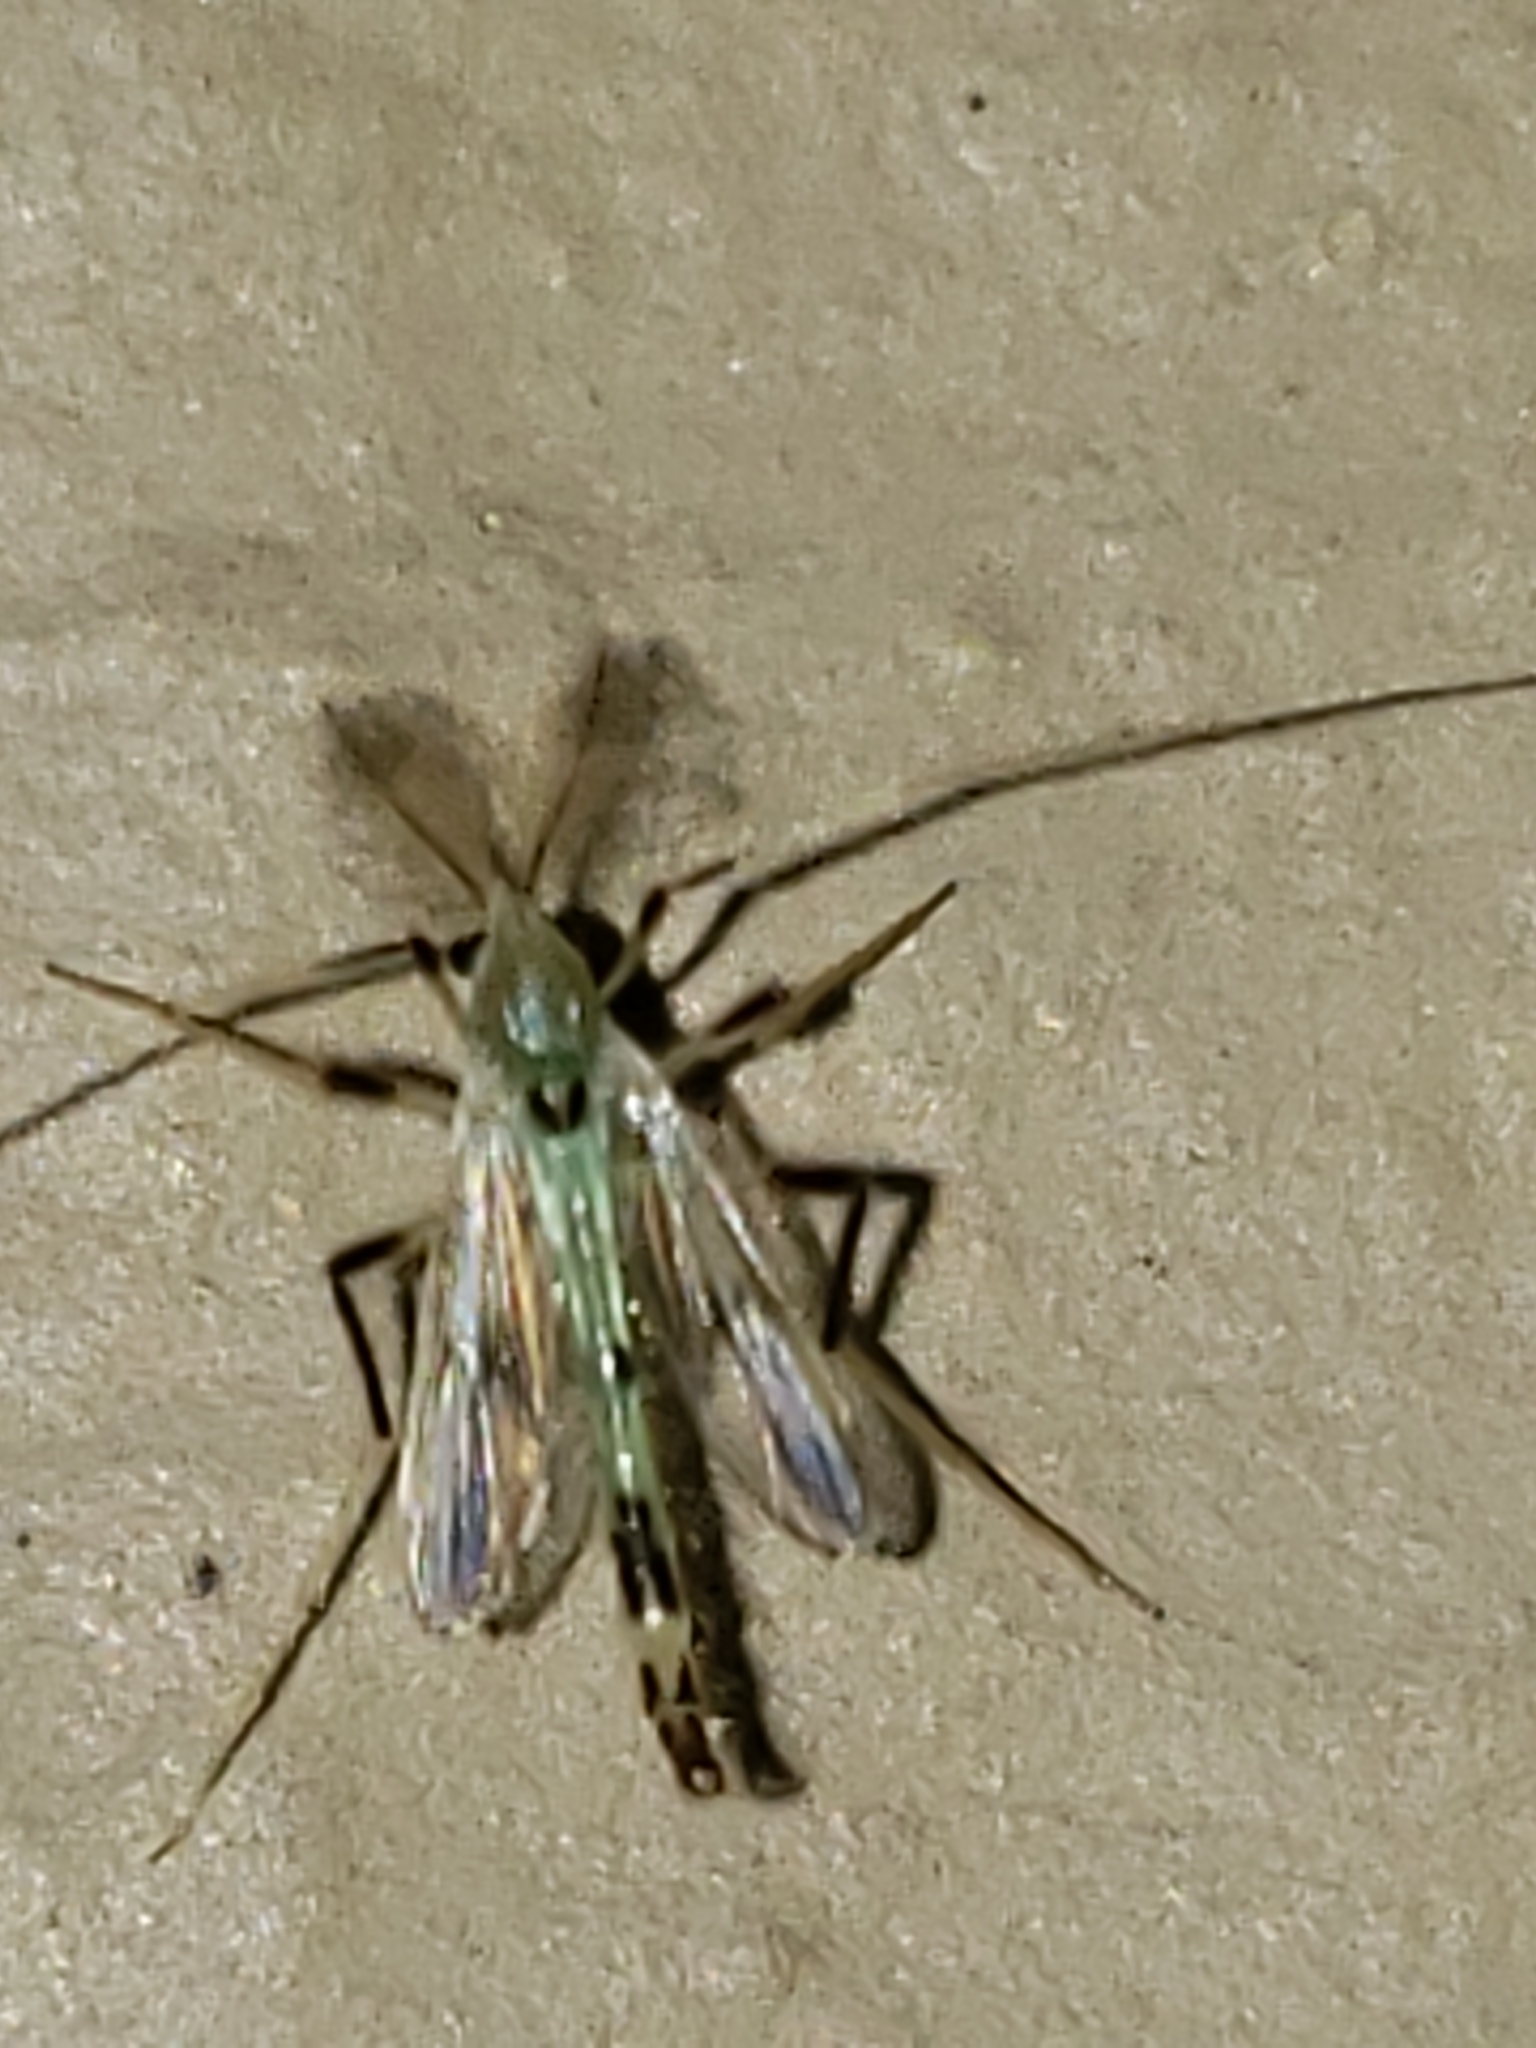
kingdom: Animalia
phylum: Arthropoda
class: Insecta
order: Diptera
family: Chironomidae
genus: Stenochironomus
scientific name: Stenochironomus hilaris
